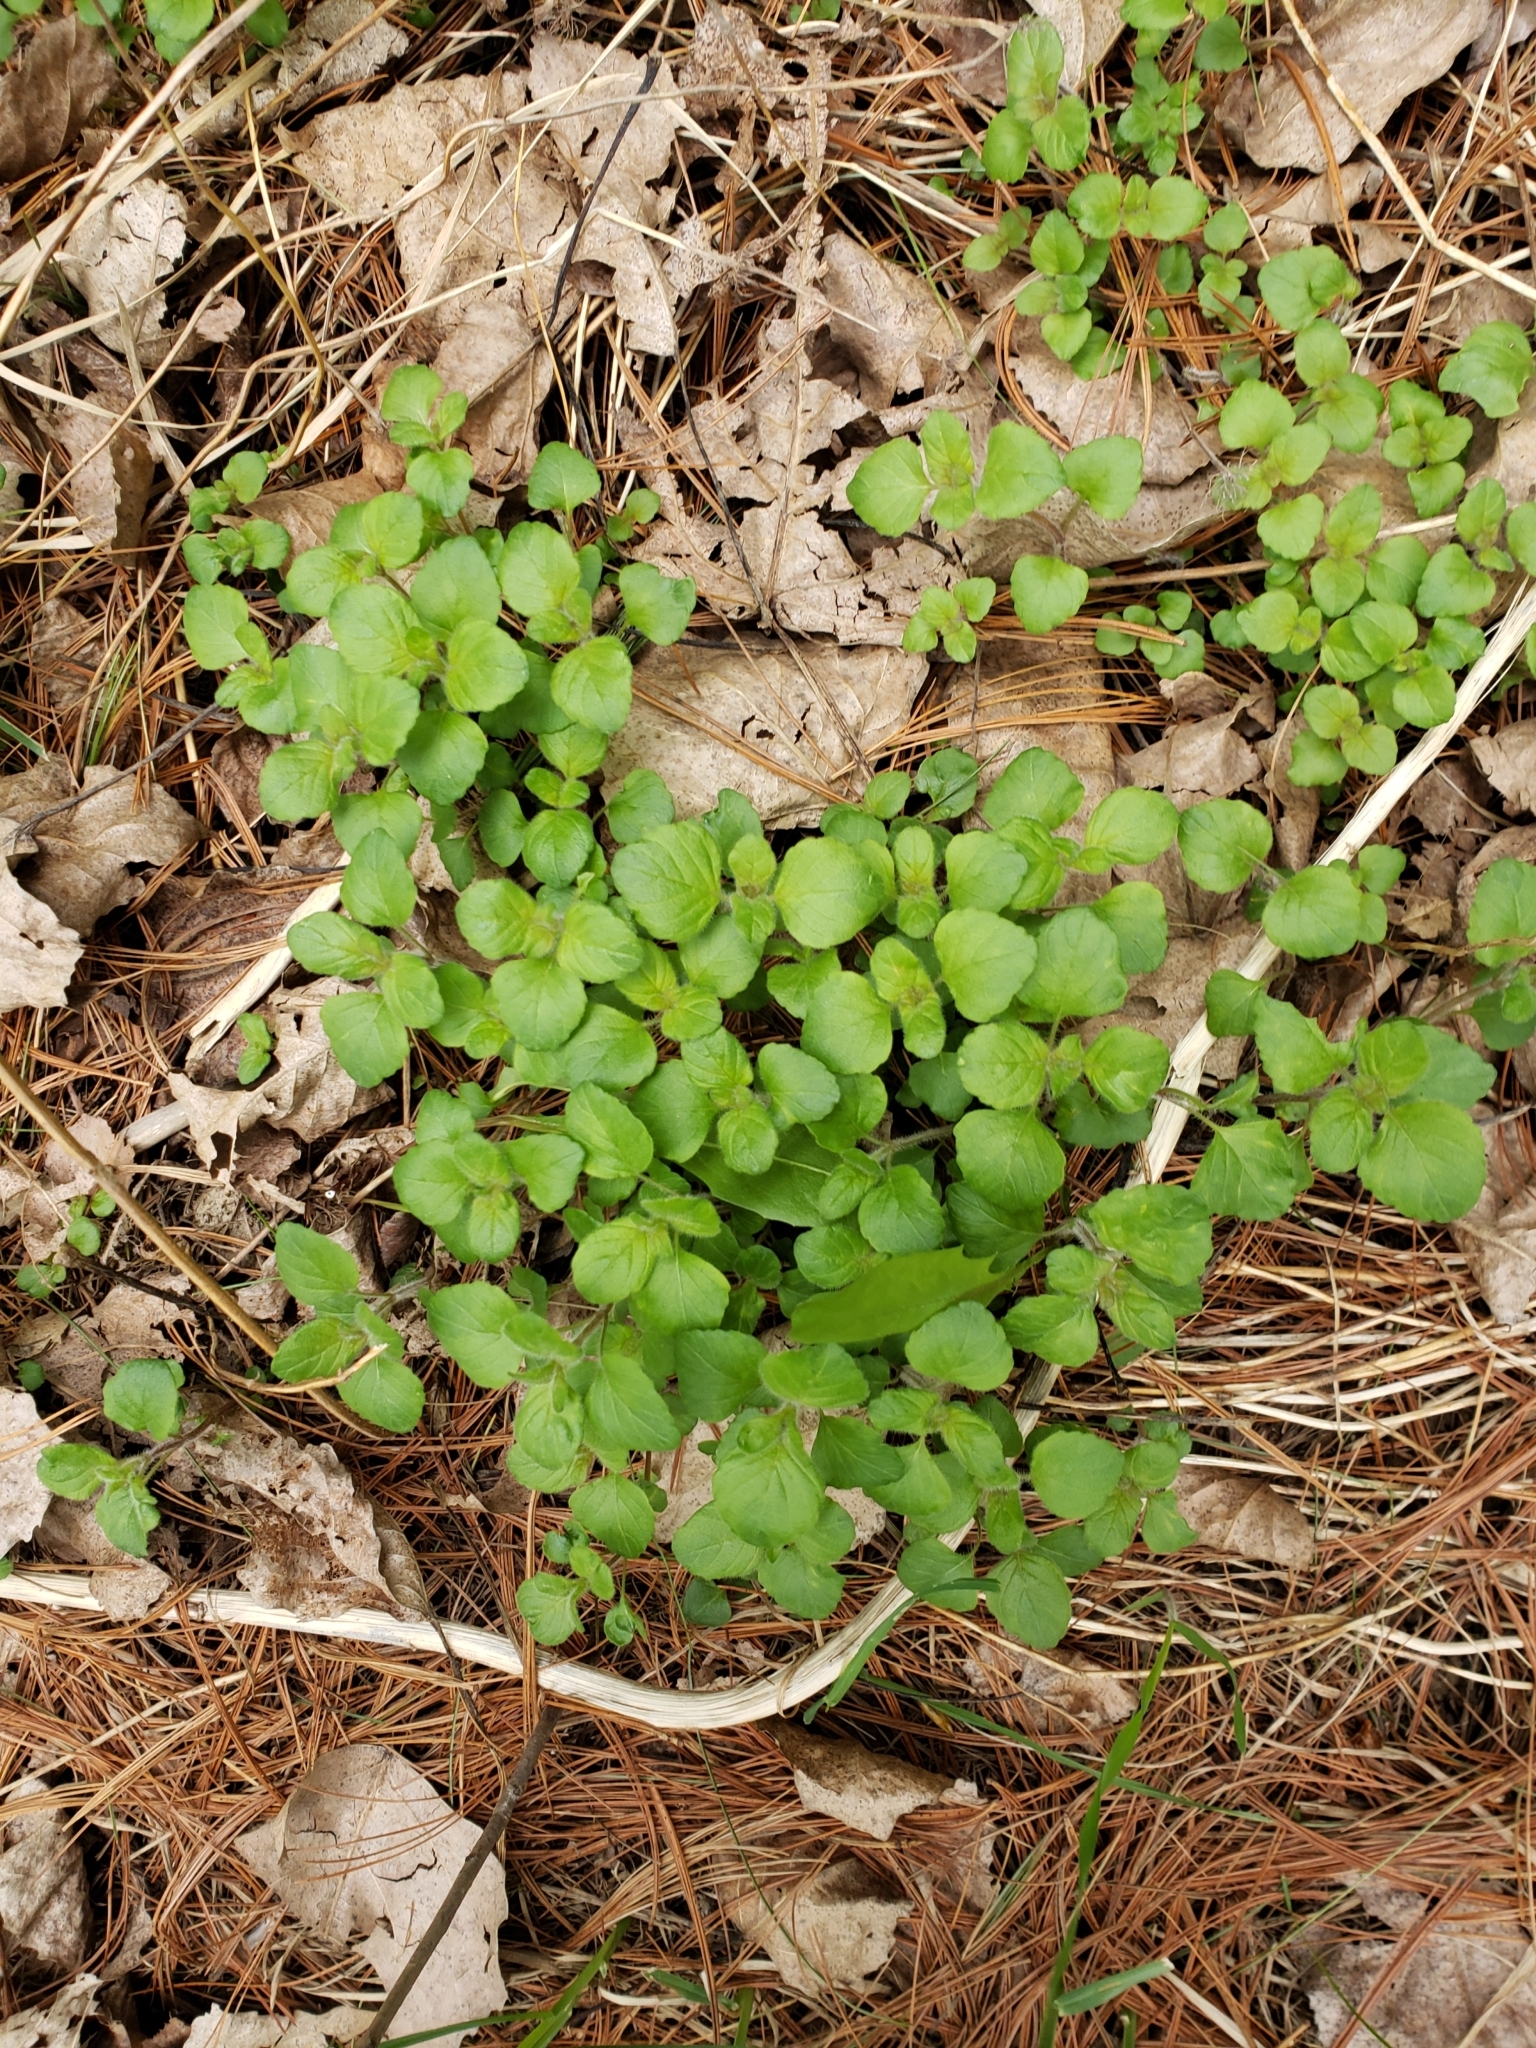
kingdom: Plantae
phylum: Tracheophyta
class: Magnoliopsida
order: Dipsacales
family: Caprifoliaceae
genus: Linnaea
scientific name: Linnaea borealis
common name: Twinflower
